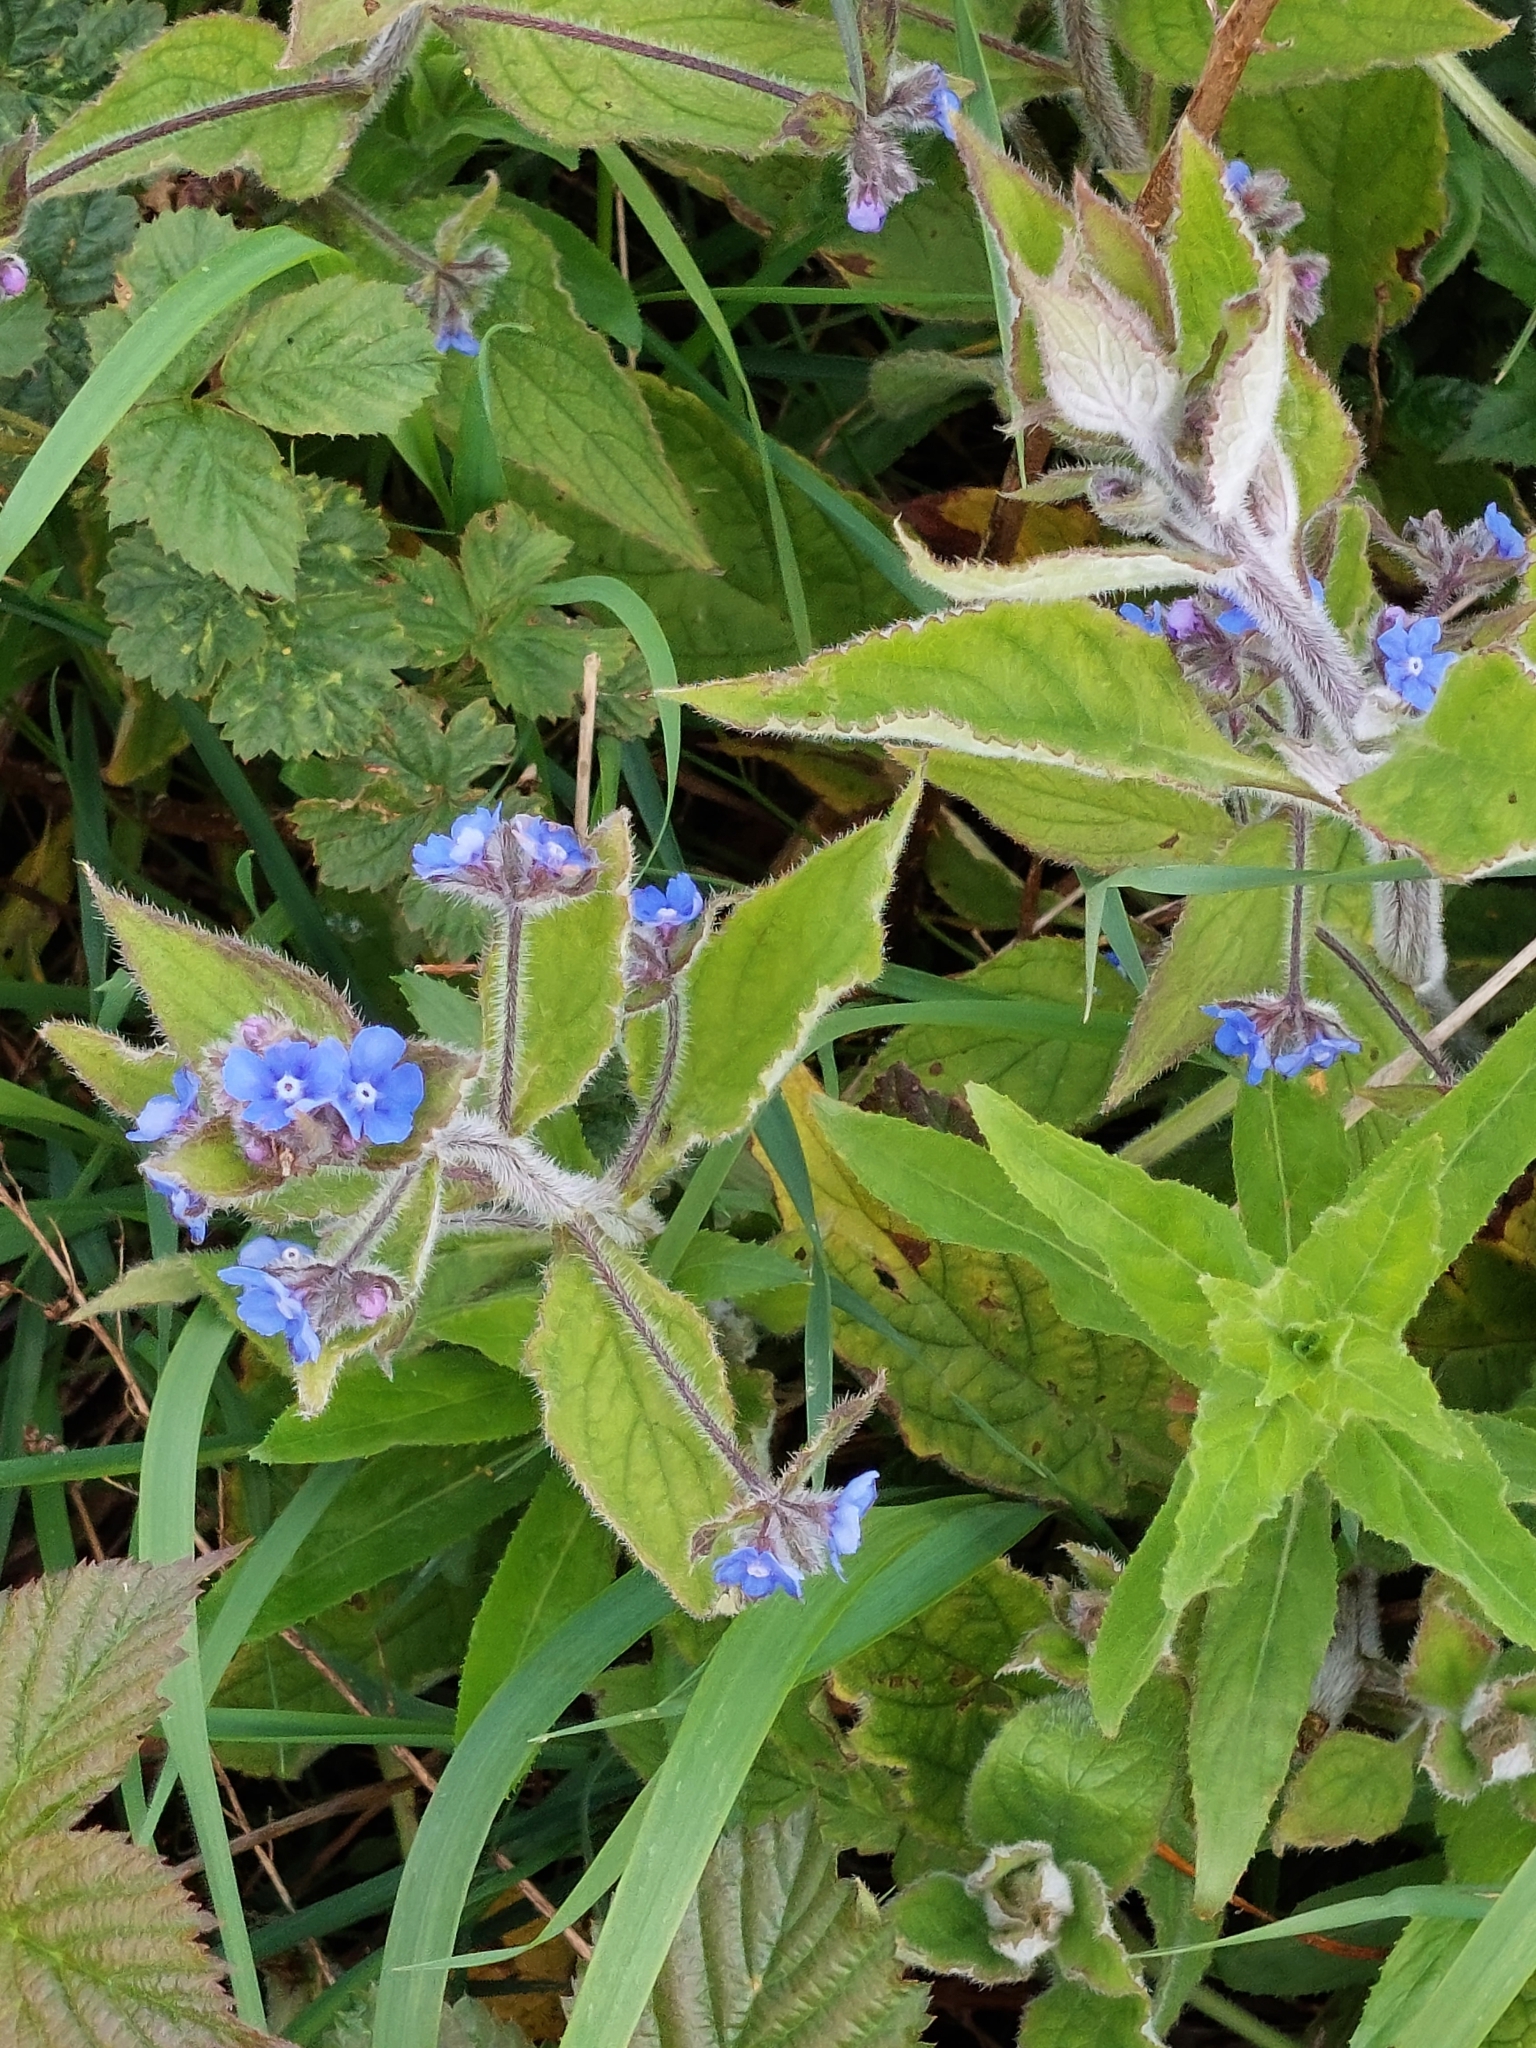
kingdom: Plantae
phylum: Tracheophyta
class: Magnoliopsida
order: Boraginales
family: Boraginaceae
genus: Pentaglottis
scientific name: Pentaglottis sempervirens
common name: Green alkanet
